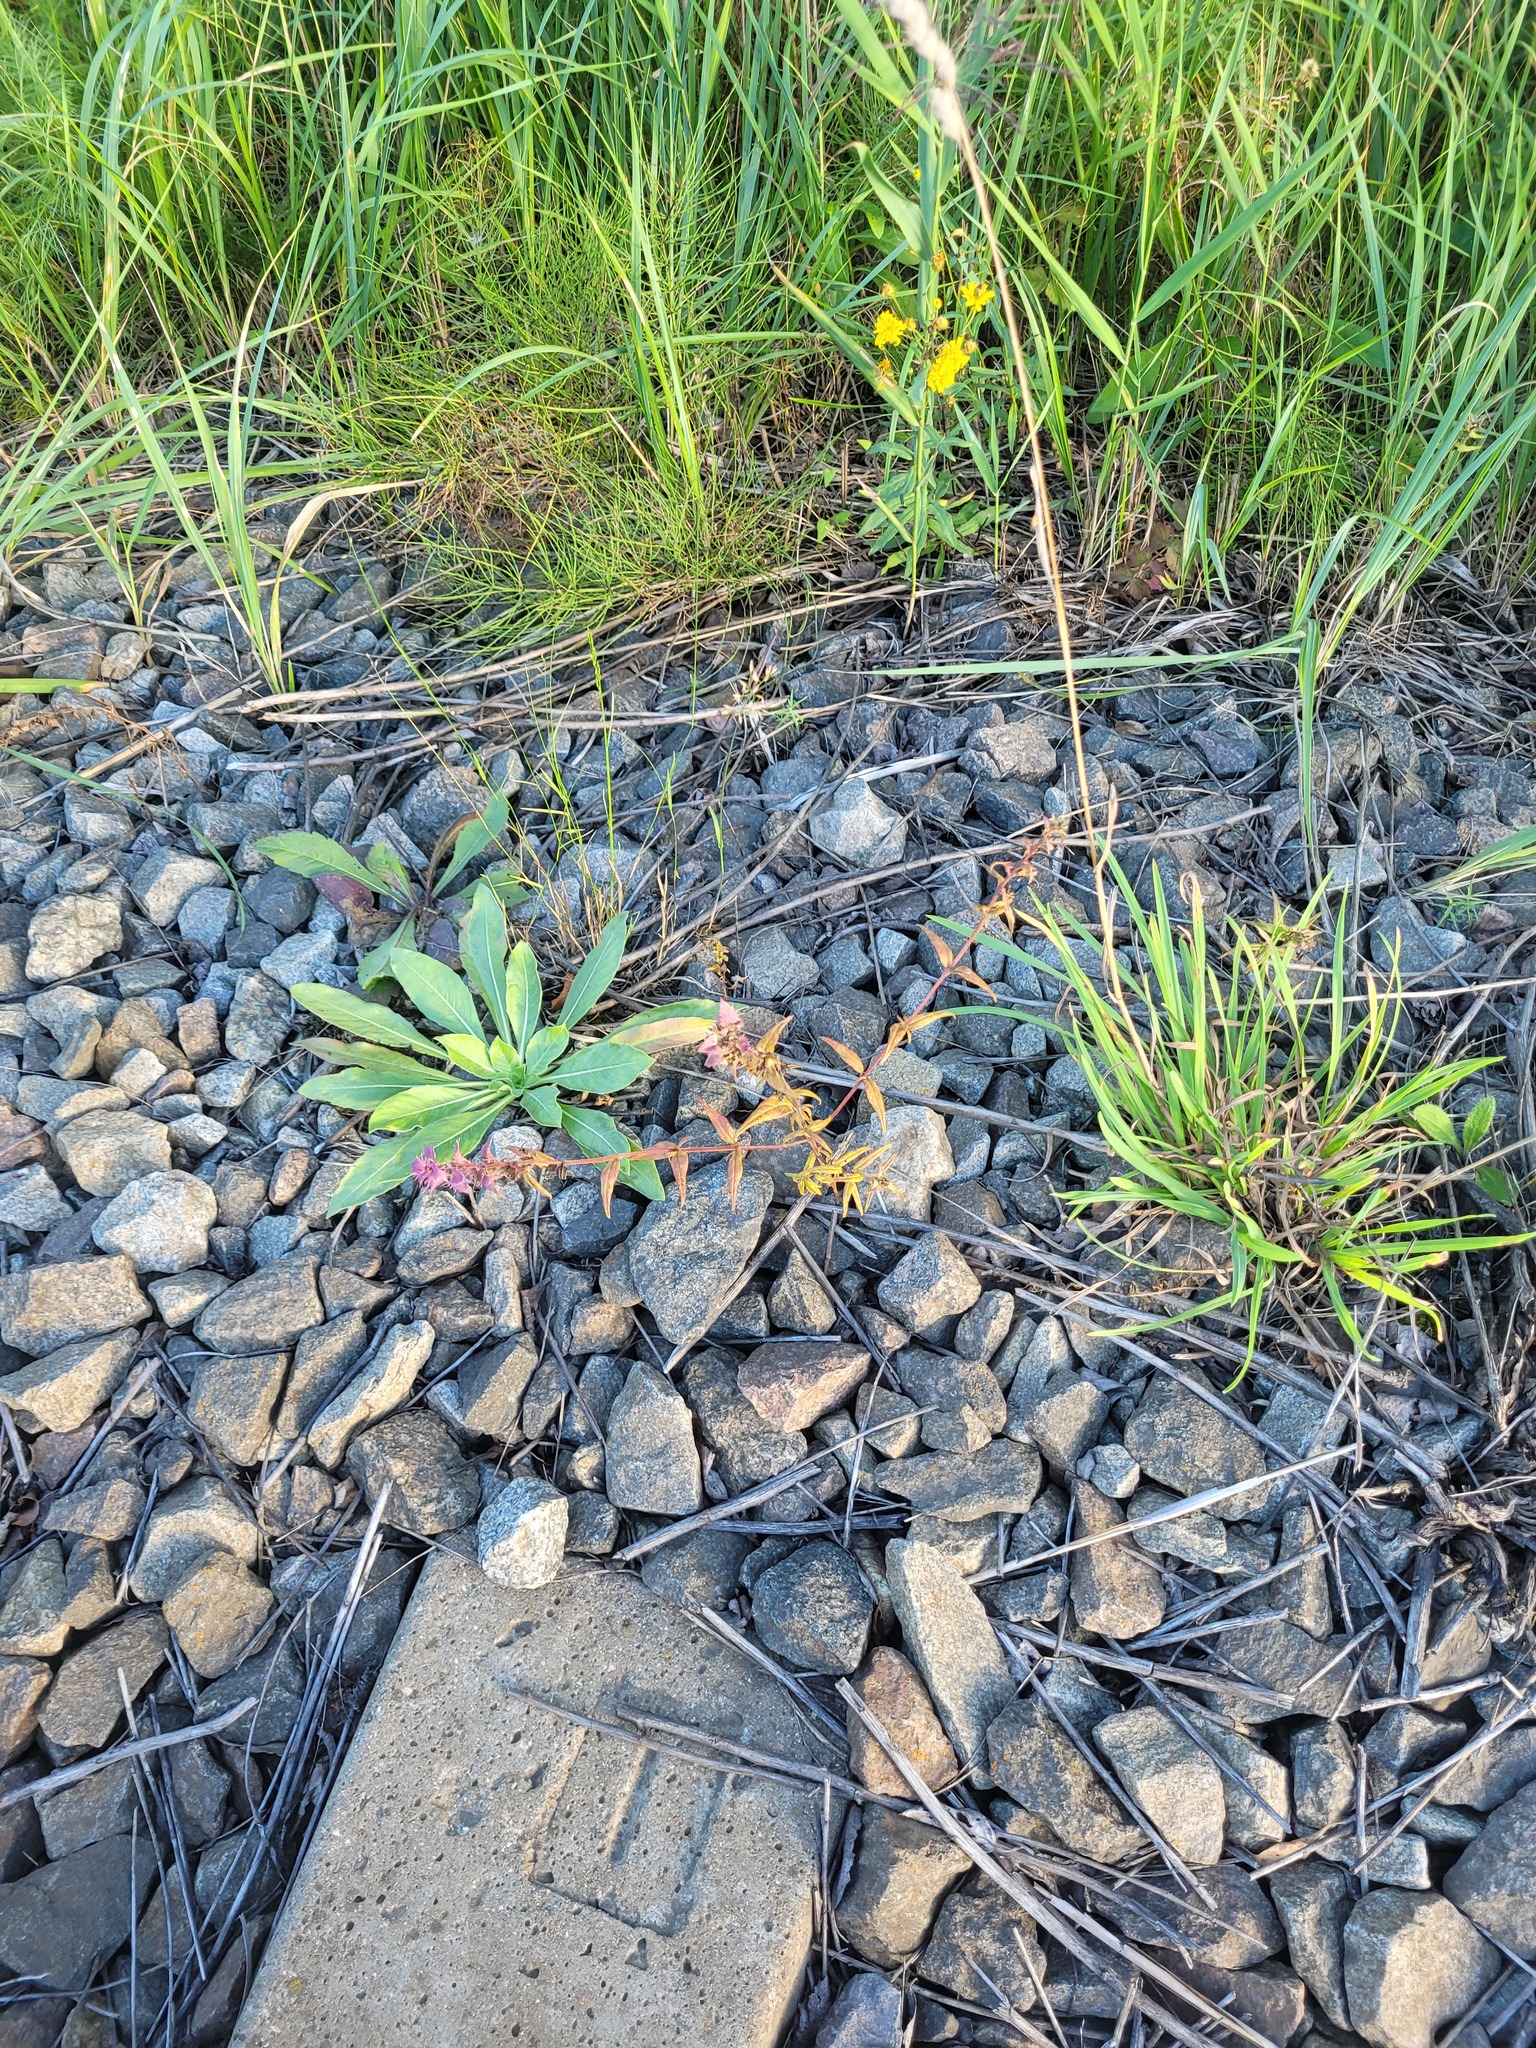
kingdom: Plantae
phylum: Tracheophyta
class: Magnoliopsida
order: Lamiales
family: Orobanchaceae
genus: Melampyrum
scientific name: Melampyrum nemorosum
